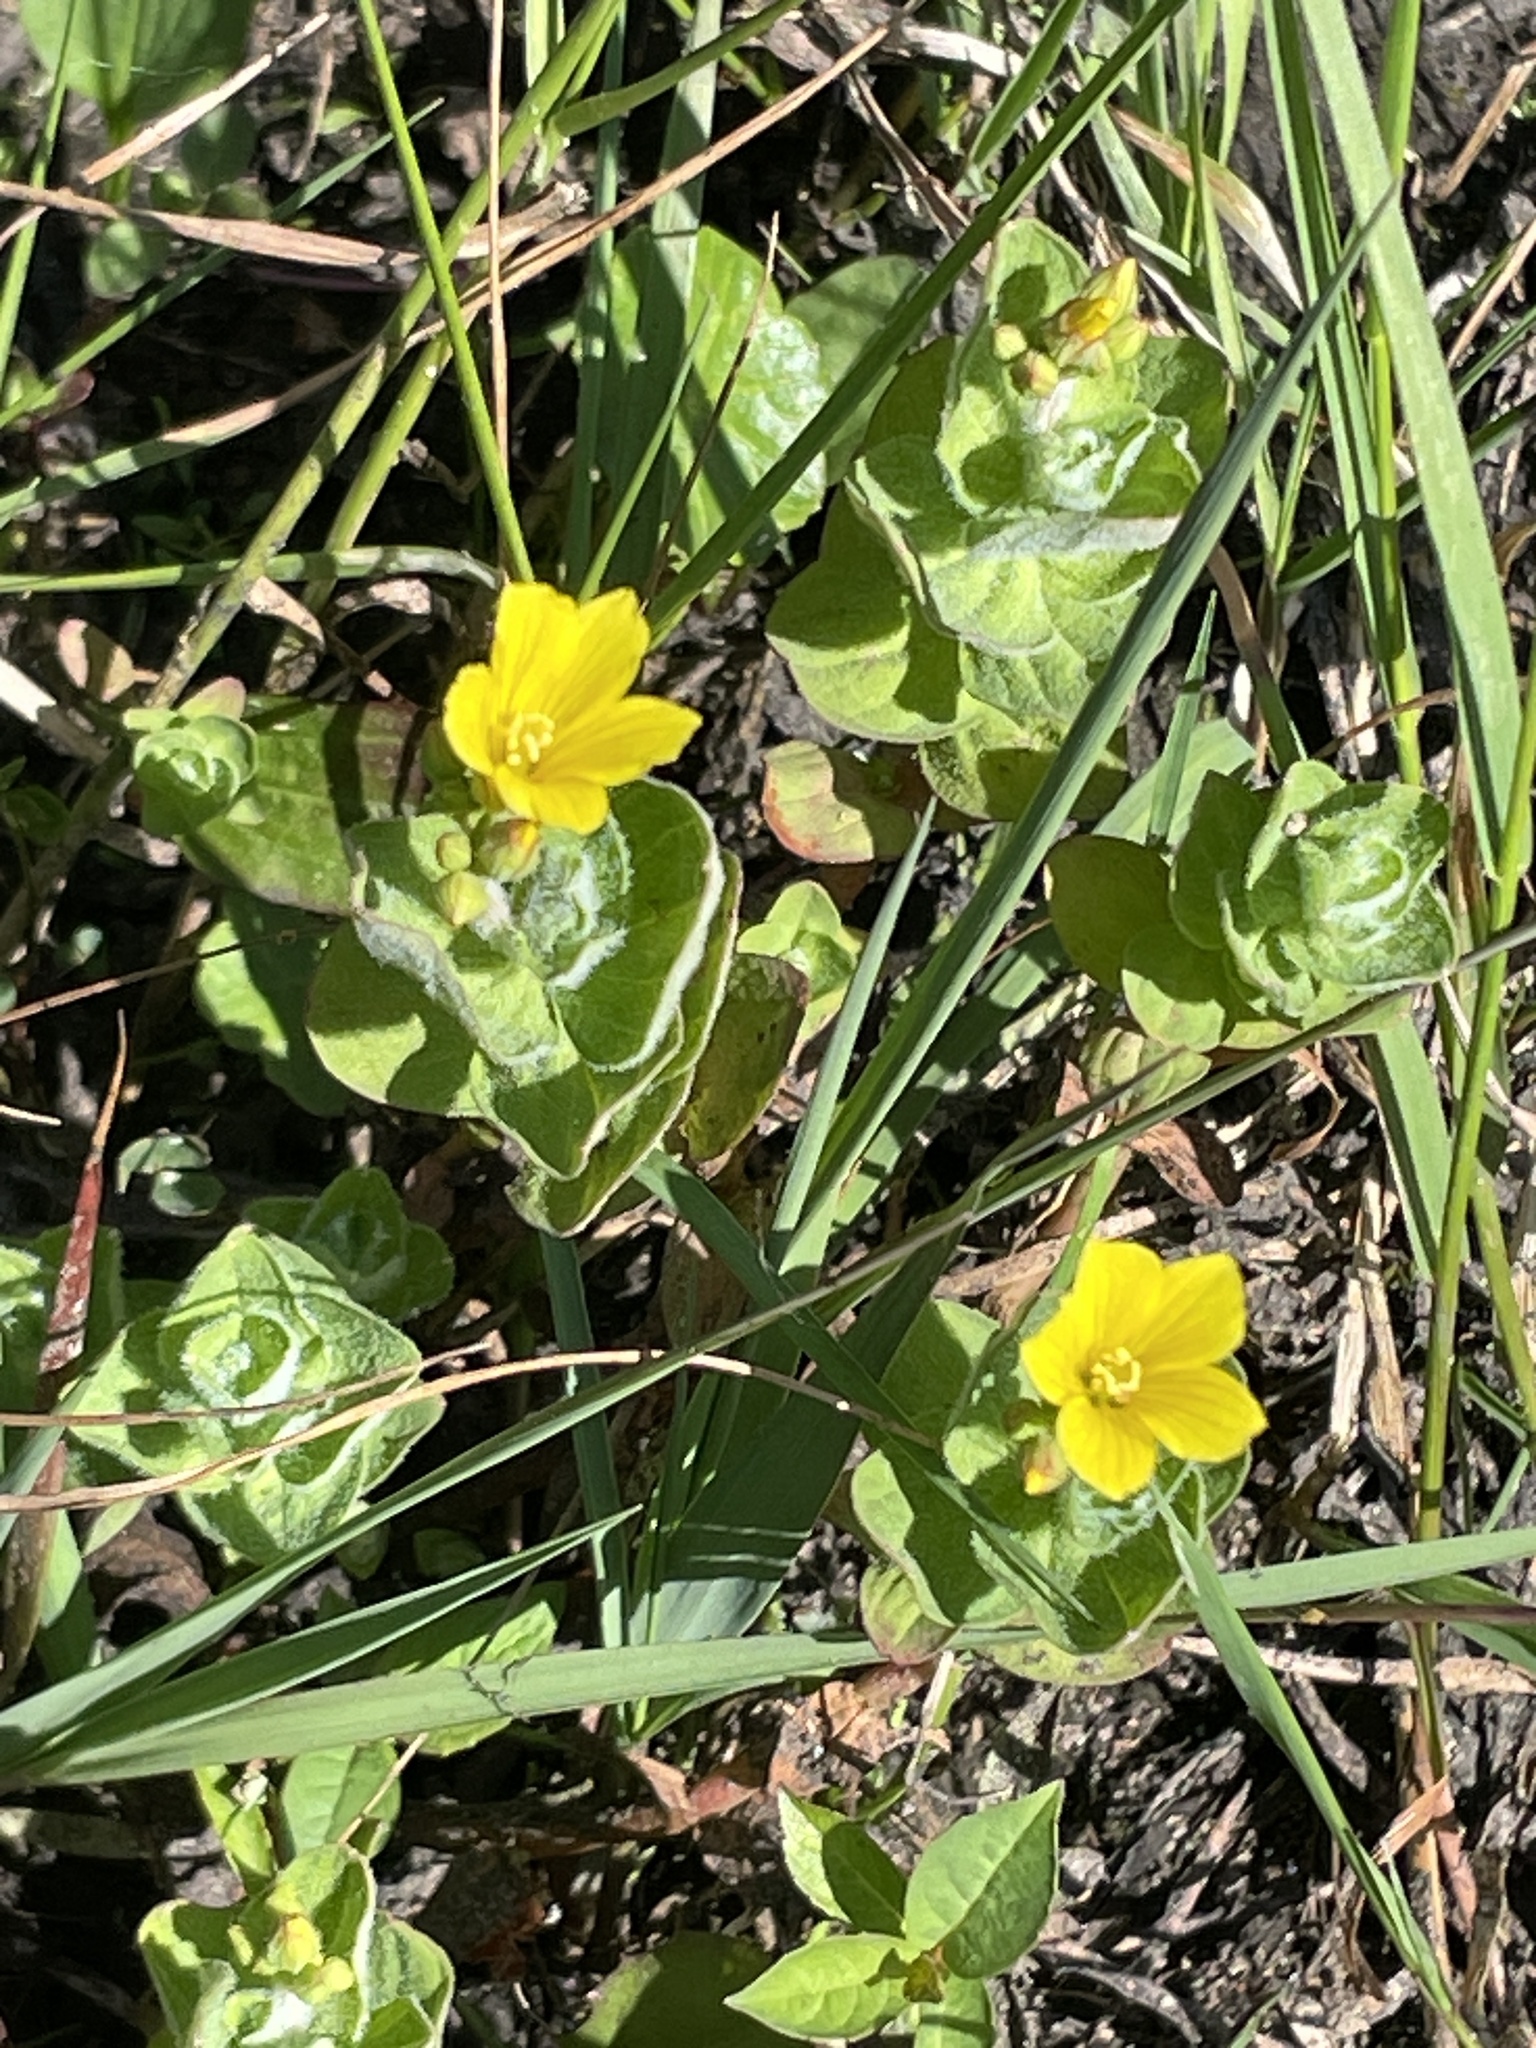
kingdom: Plantae
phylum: Tracheophyta
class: Magnoliopsida
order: Malpighiales
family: Hypericaceae
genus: Hypericum
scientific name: Hypericum elodes
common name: Marsh st. john's-wort
